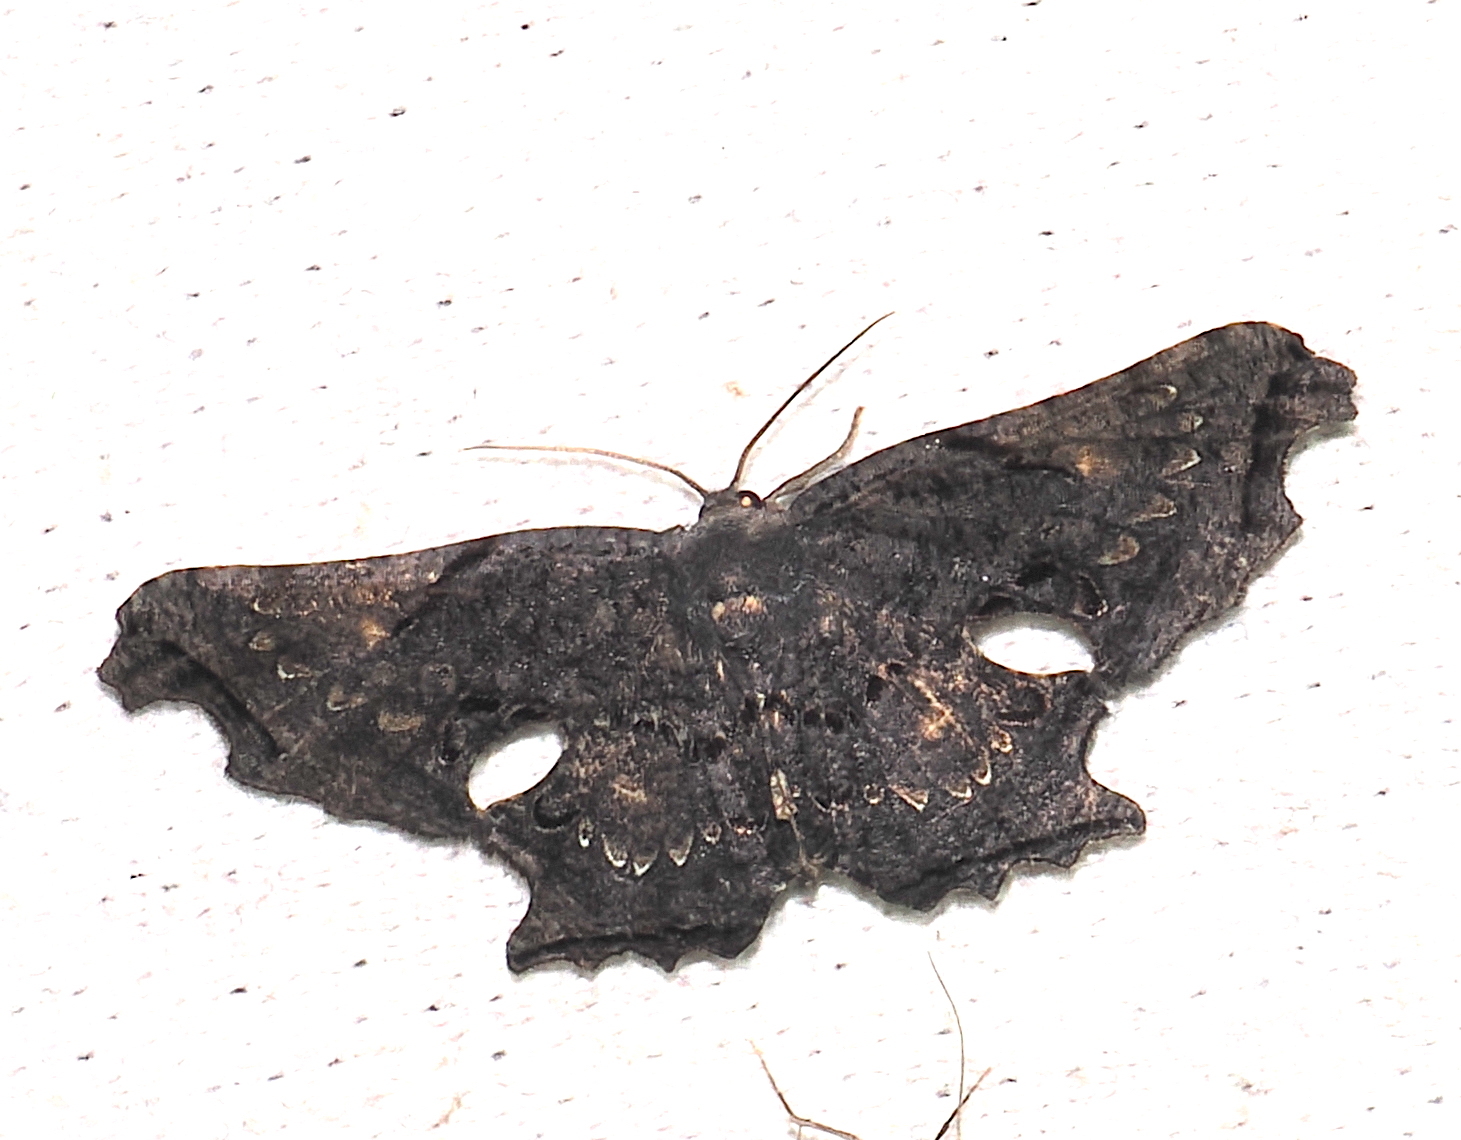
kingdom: Animalia
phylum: Arthropoda
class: Insecta
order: Lepidoptera
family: Uraniidae
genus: Crypsicoela
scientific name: Crypsicoela subocellata
